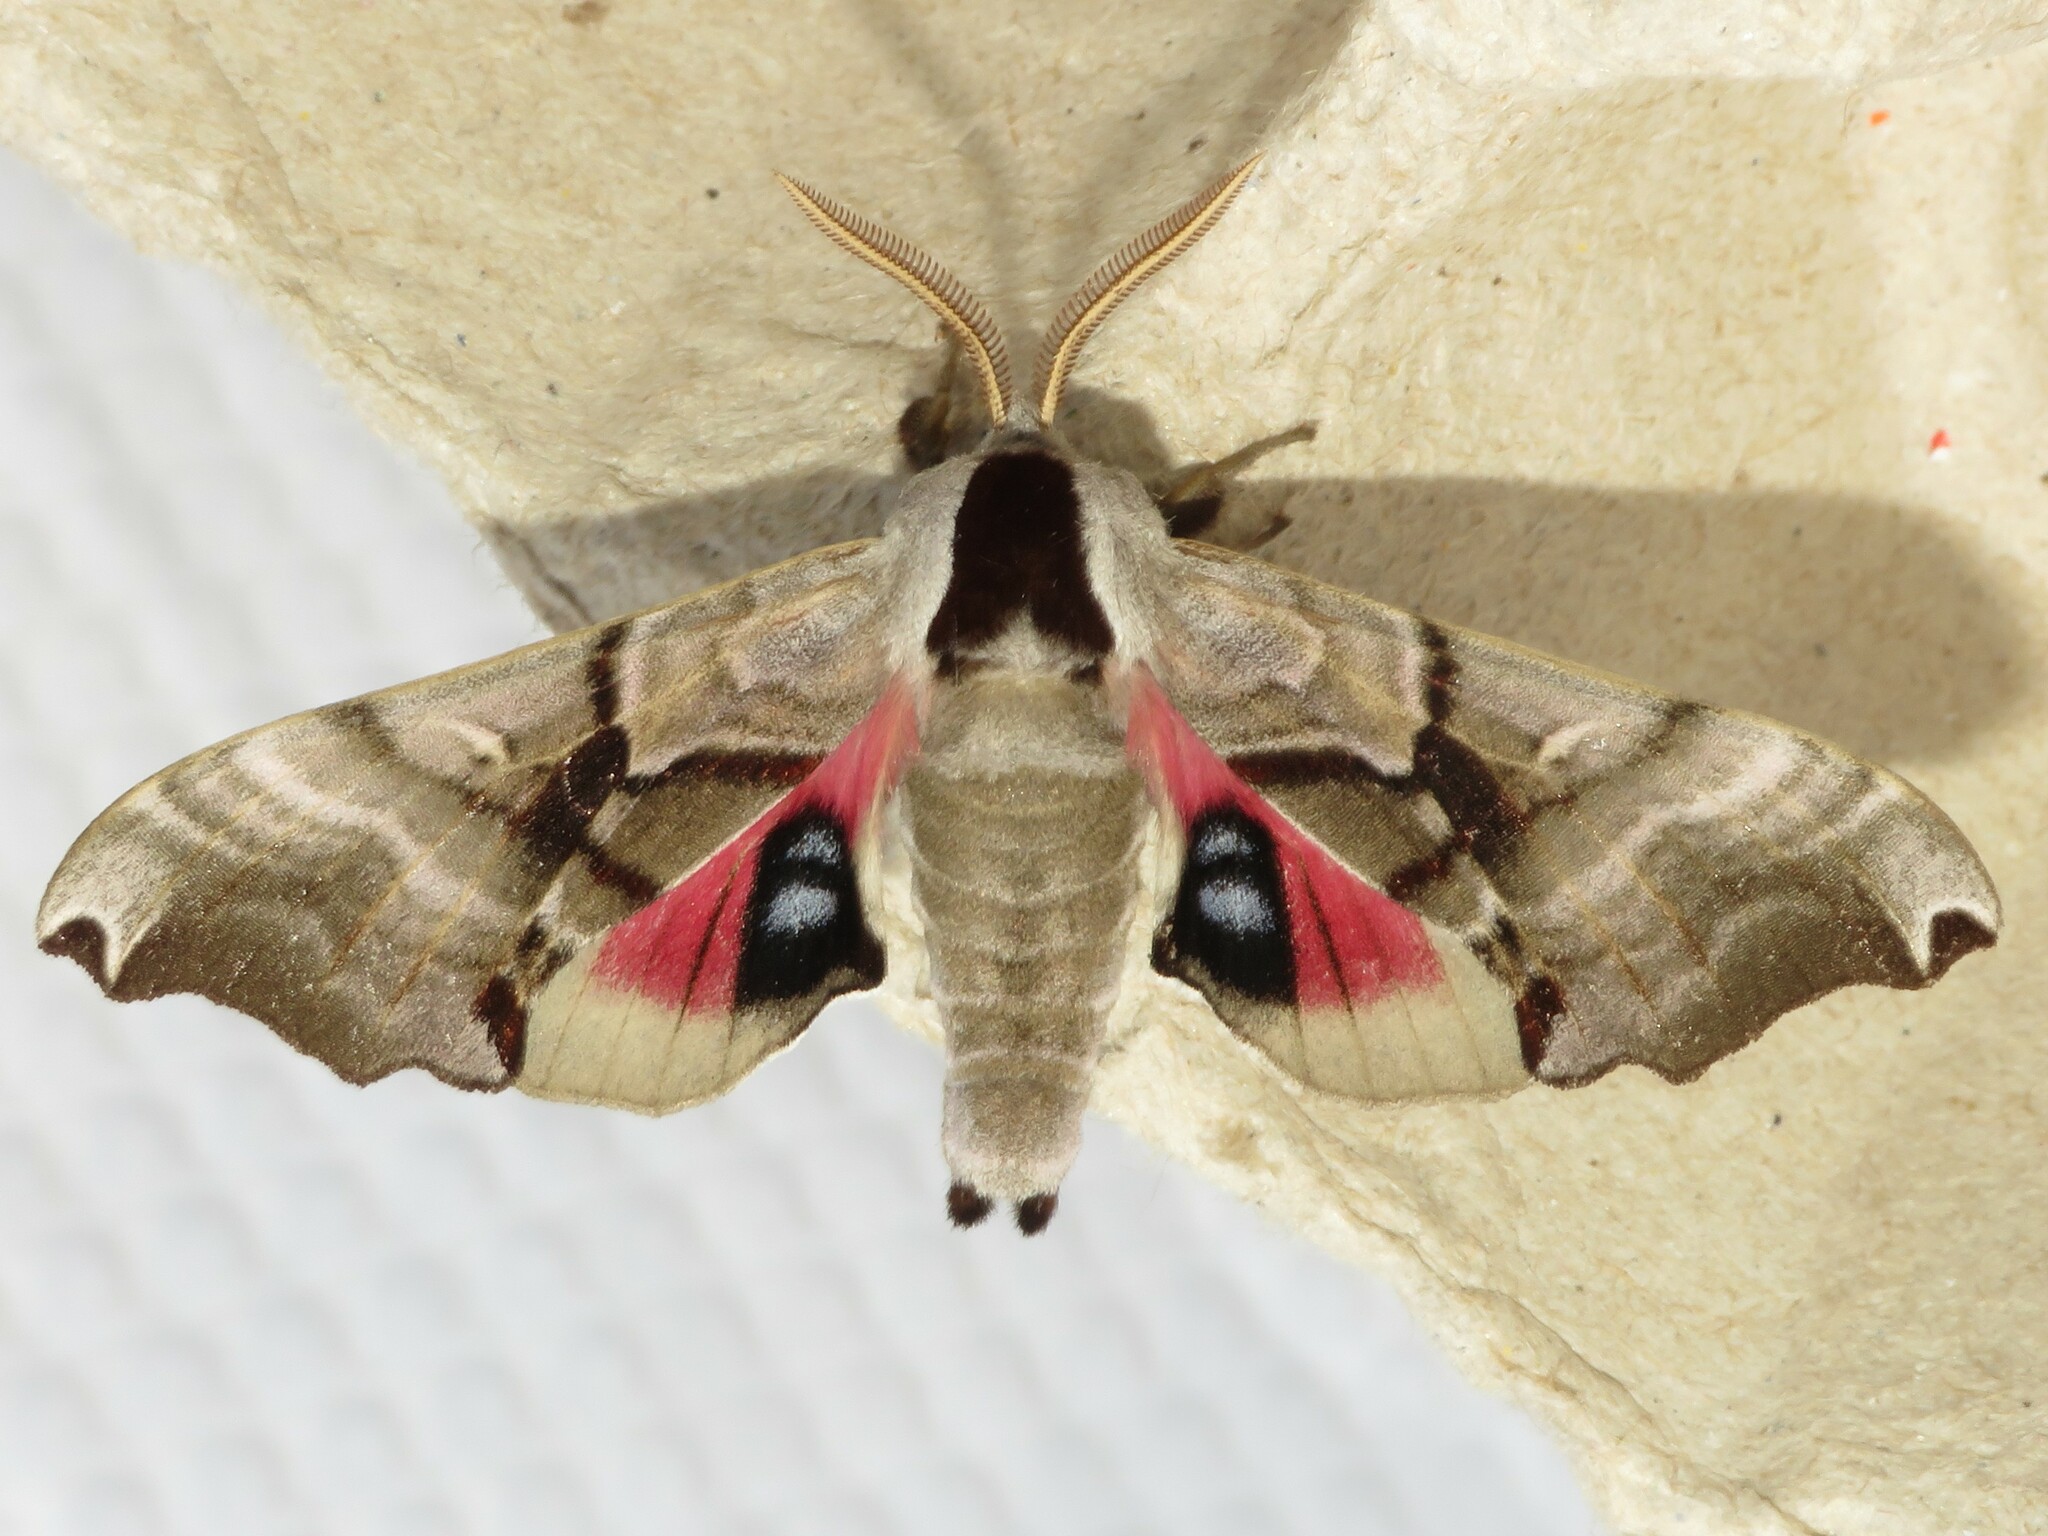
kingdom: Animalia
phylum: Arthropoda
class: Insecta
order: Lepidoptera
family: Sphingidae
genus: Smerinthus
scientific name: Smerinthus jamaicensis
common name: Twin spotted sphinx
